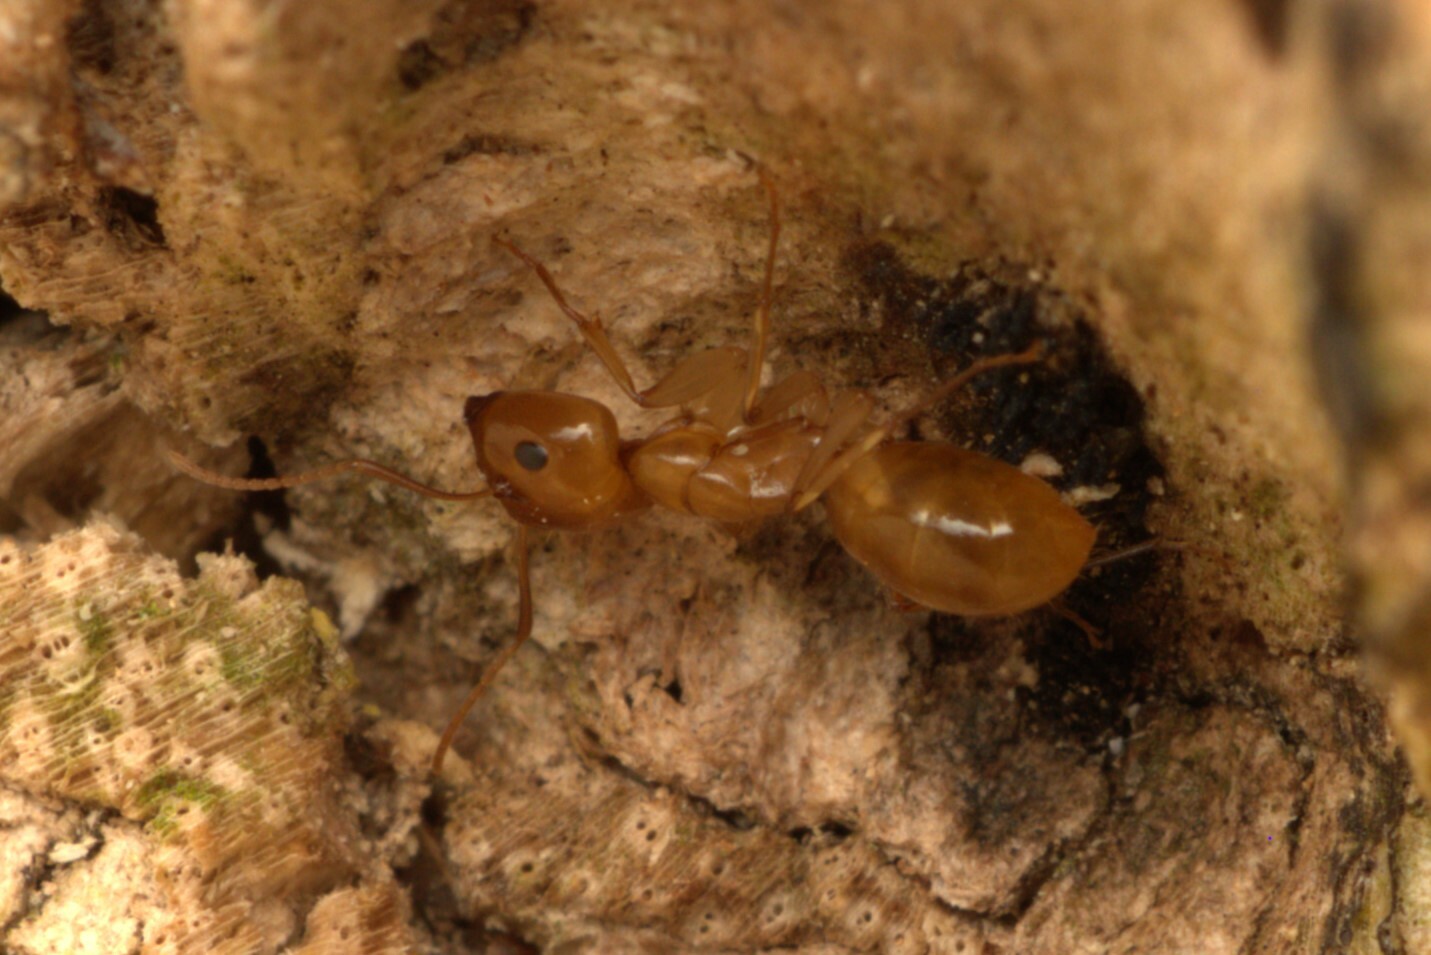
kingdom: Animalia
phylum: Arthropoda
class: Insecta
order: Hymenoptera
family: Formicidae
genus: Camponotus
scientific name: Camponotus ustus
